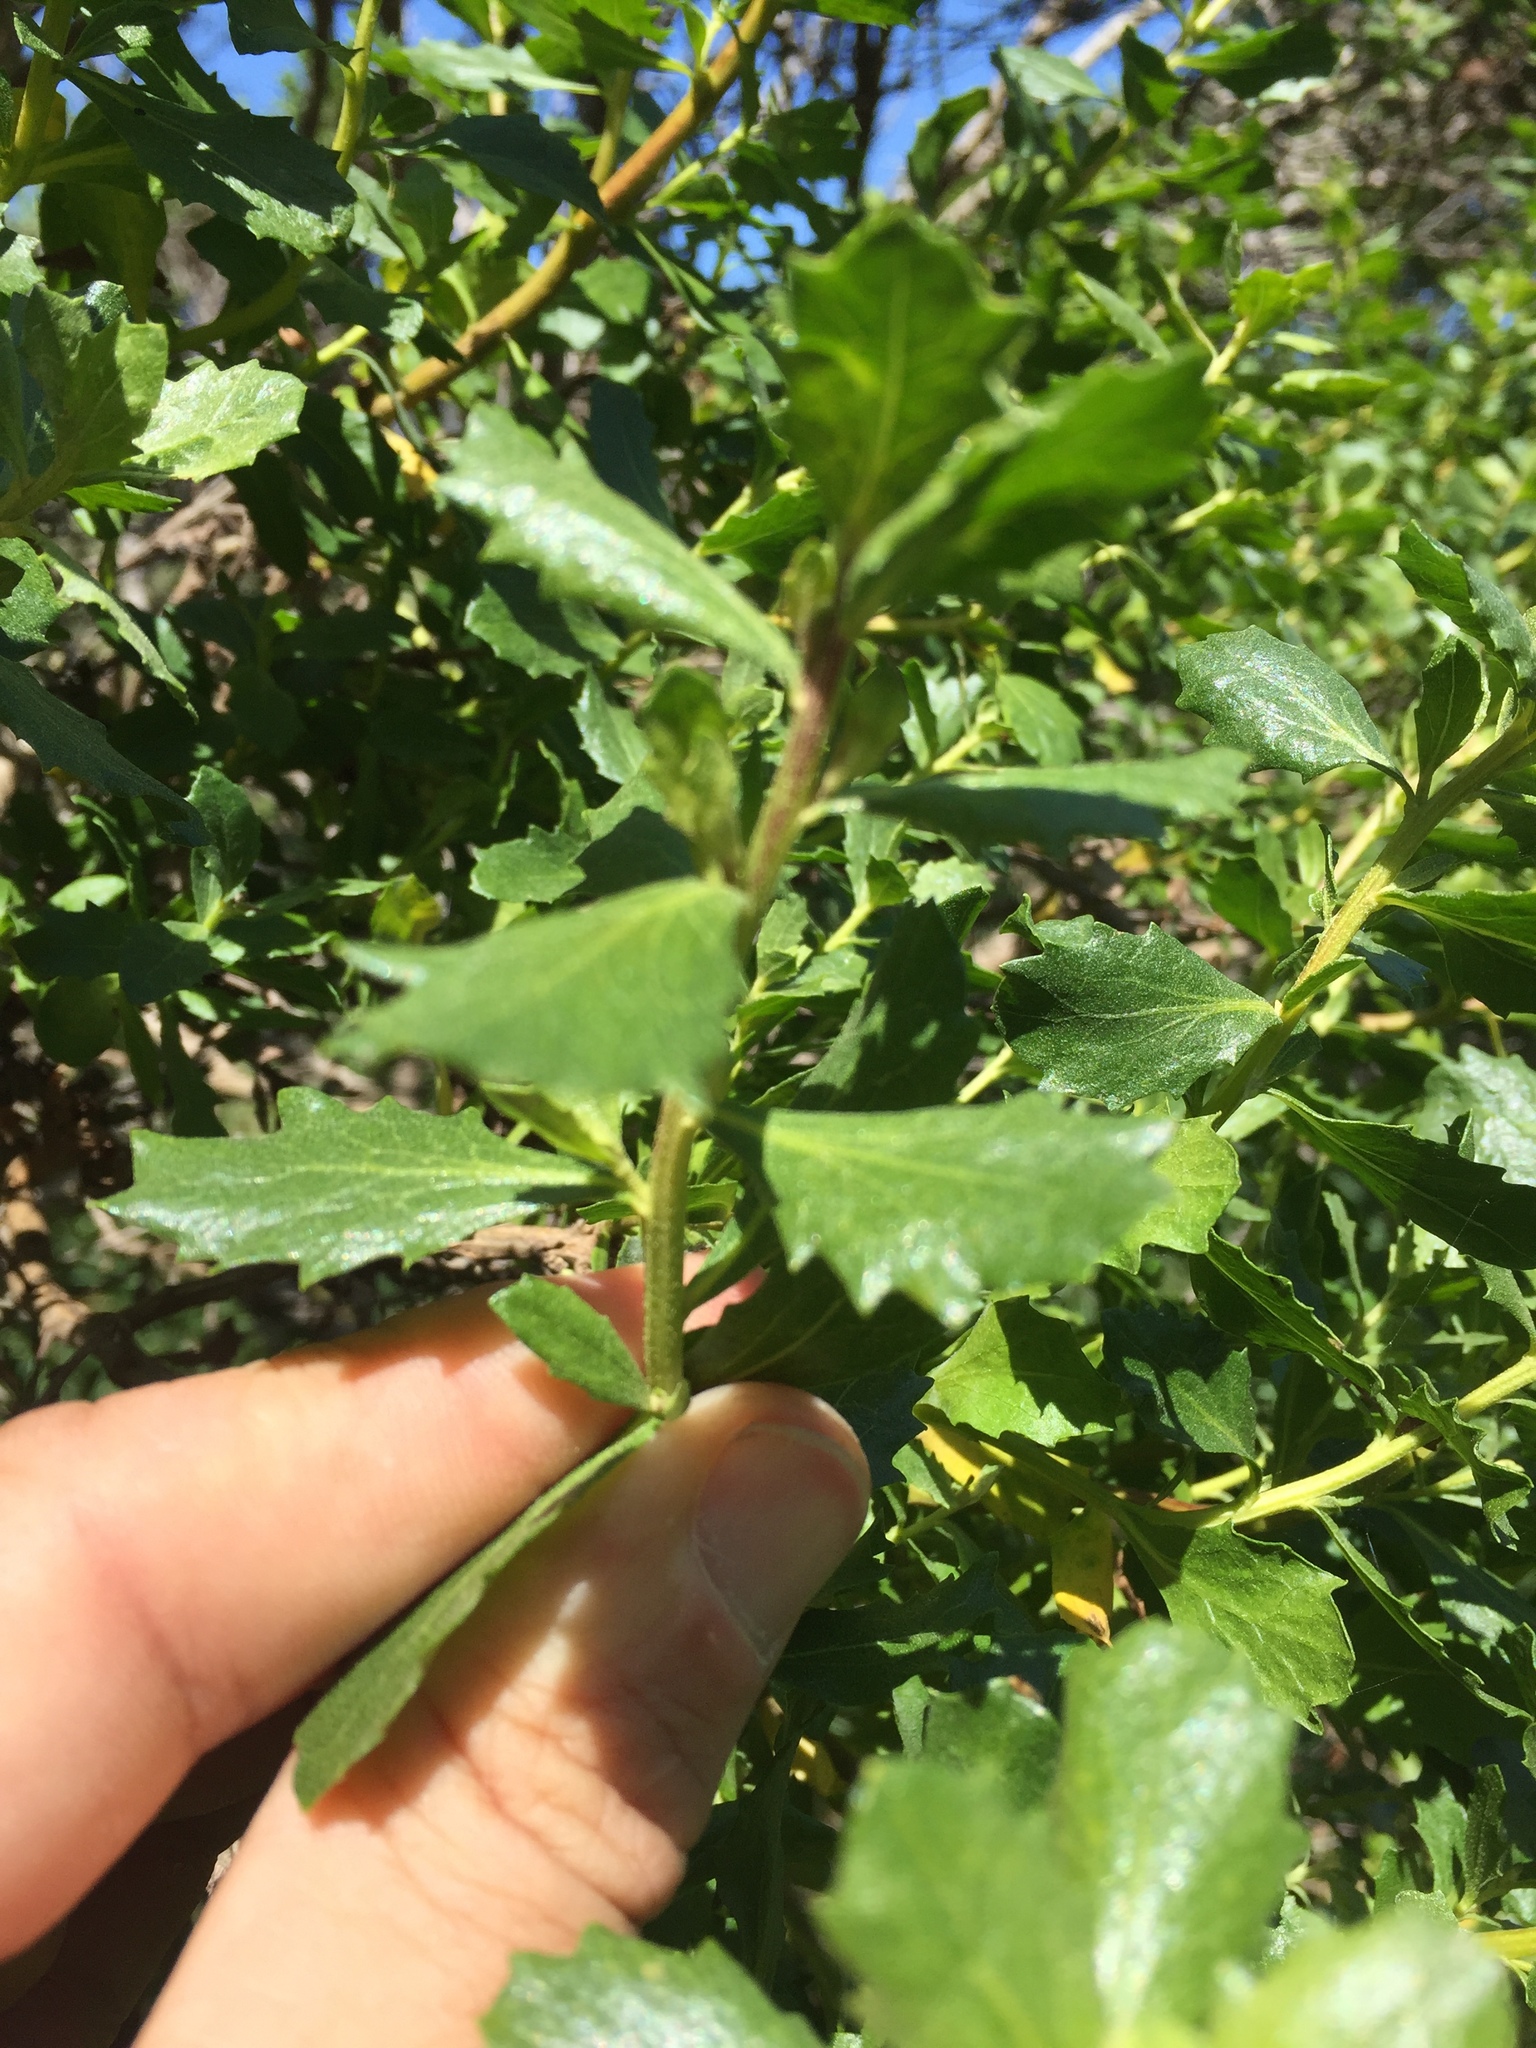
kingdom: Plantae
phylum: Tracheophyta
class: Magnoliopsida
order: Asterales
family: Asteraceae
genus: Baccharis
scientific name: Baccharis pilularis
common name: Coyotebrush
